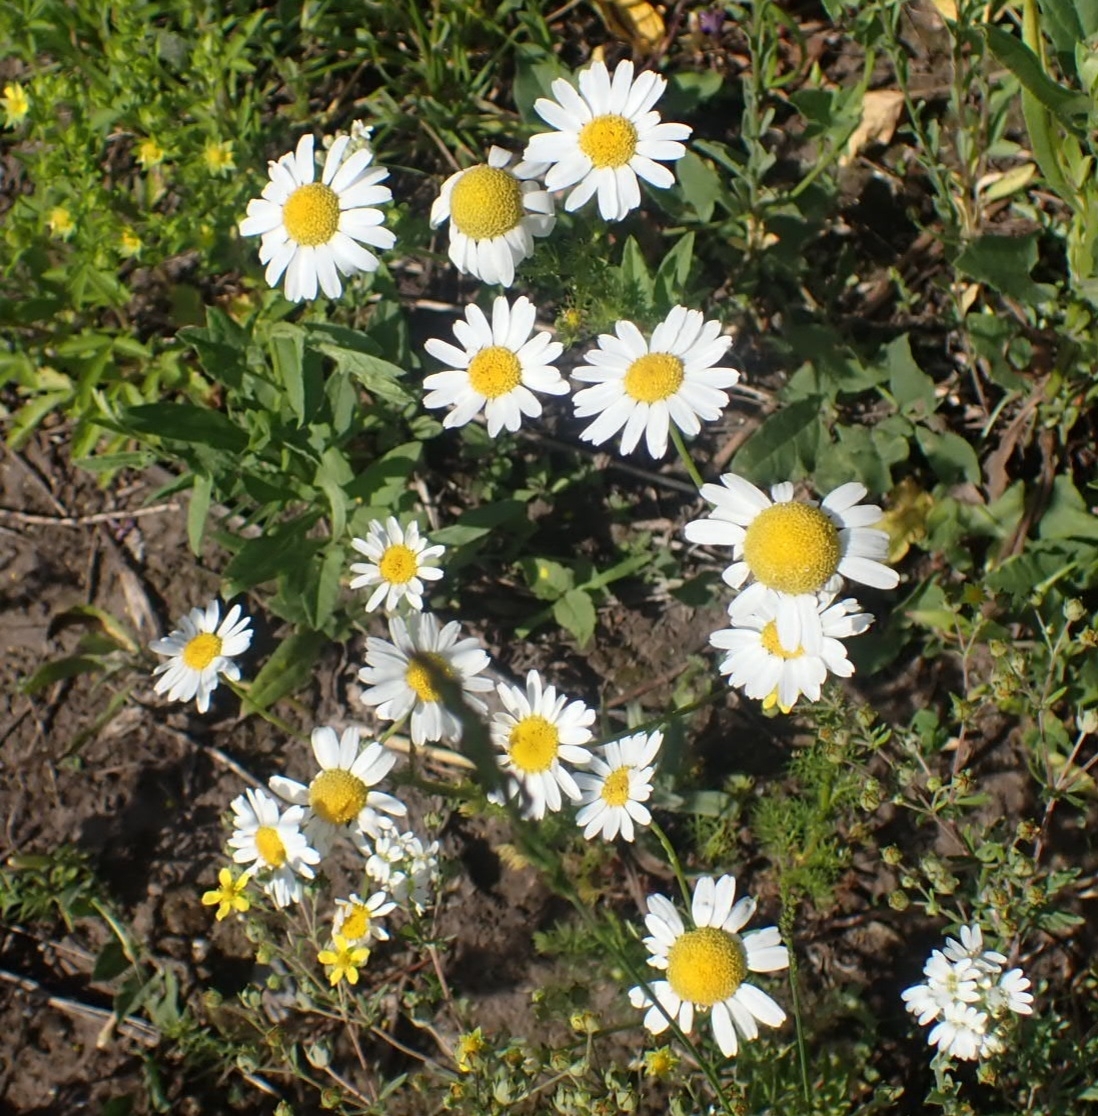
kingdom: Plantae
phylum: Tracheophyta
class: Magnoliopsida
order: Asterales
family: Asteraceae
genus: Tripleurospermum
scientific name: Tripleurospermum inodorum
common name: Scentless mayweed
